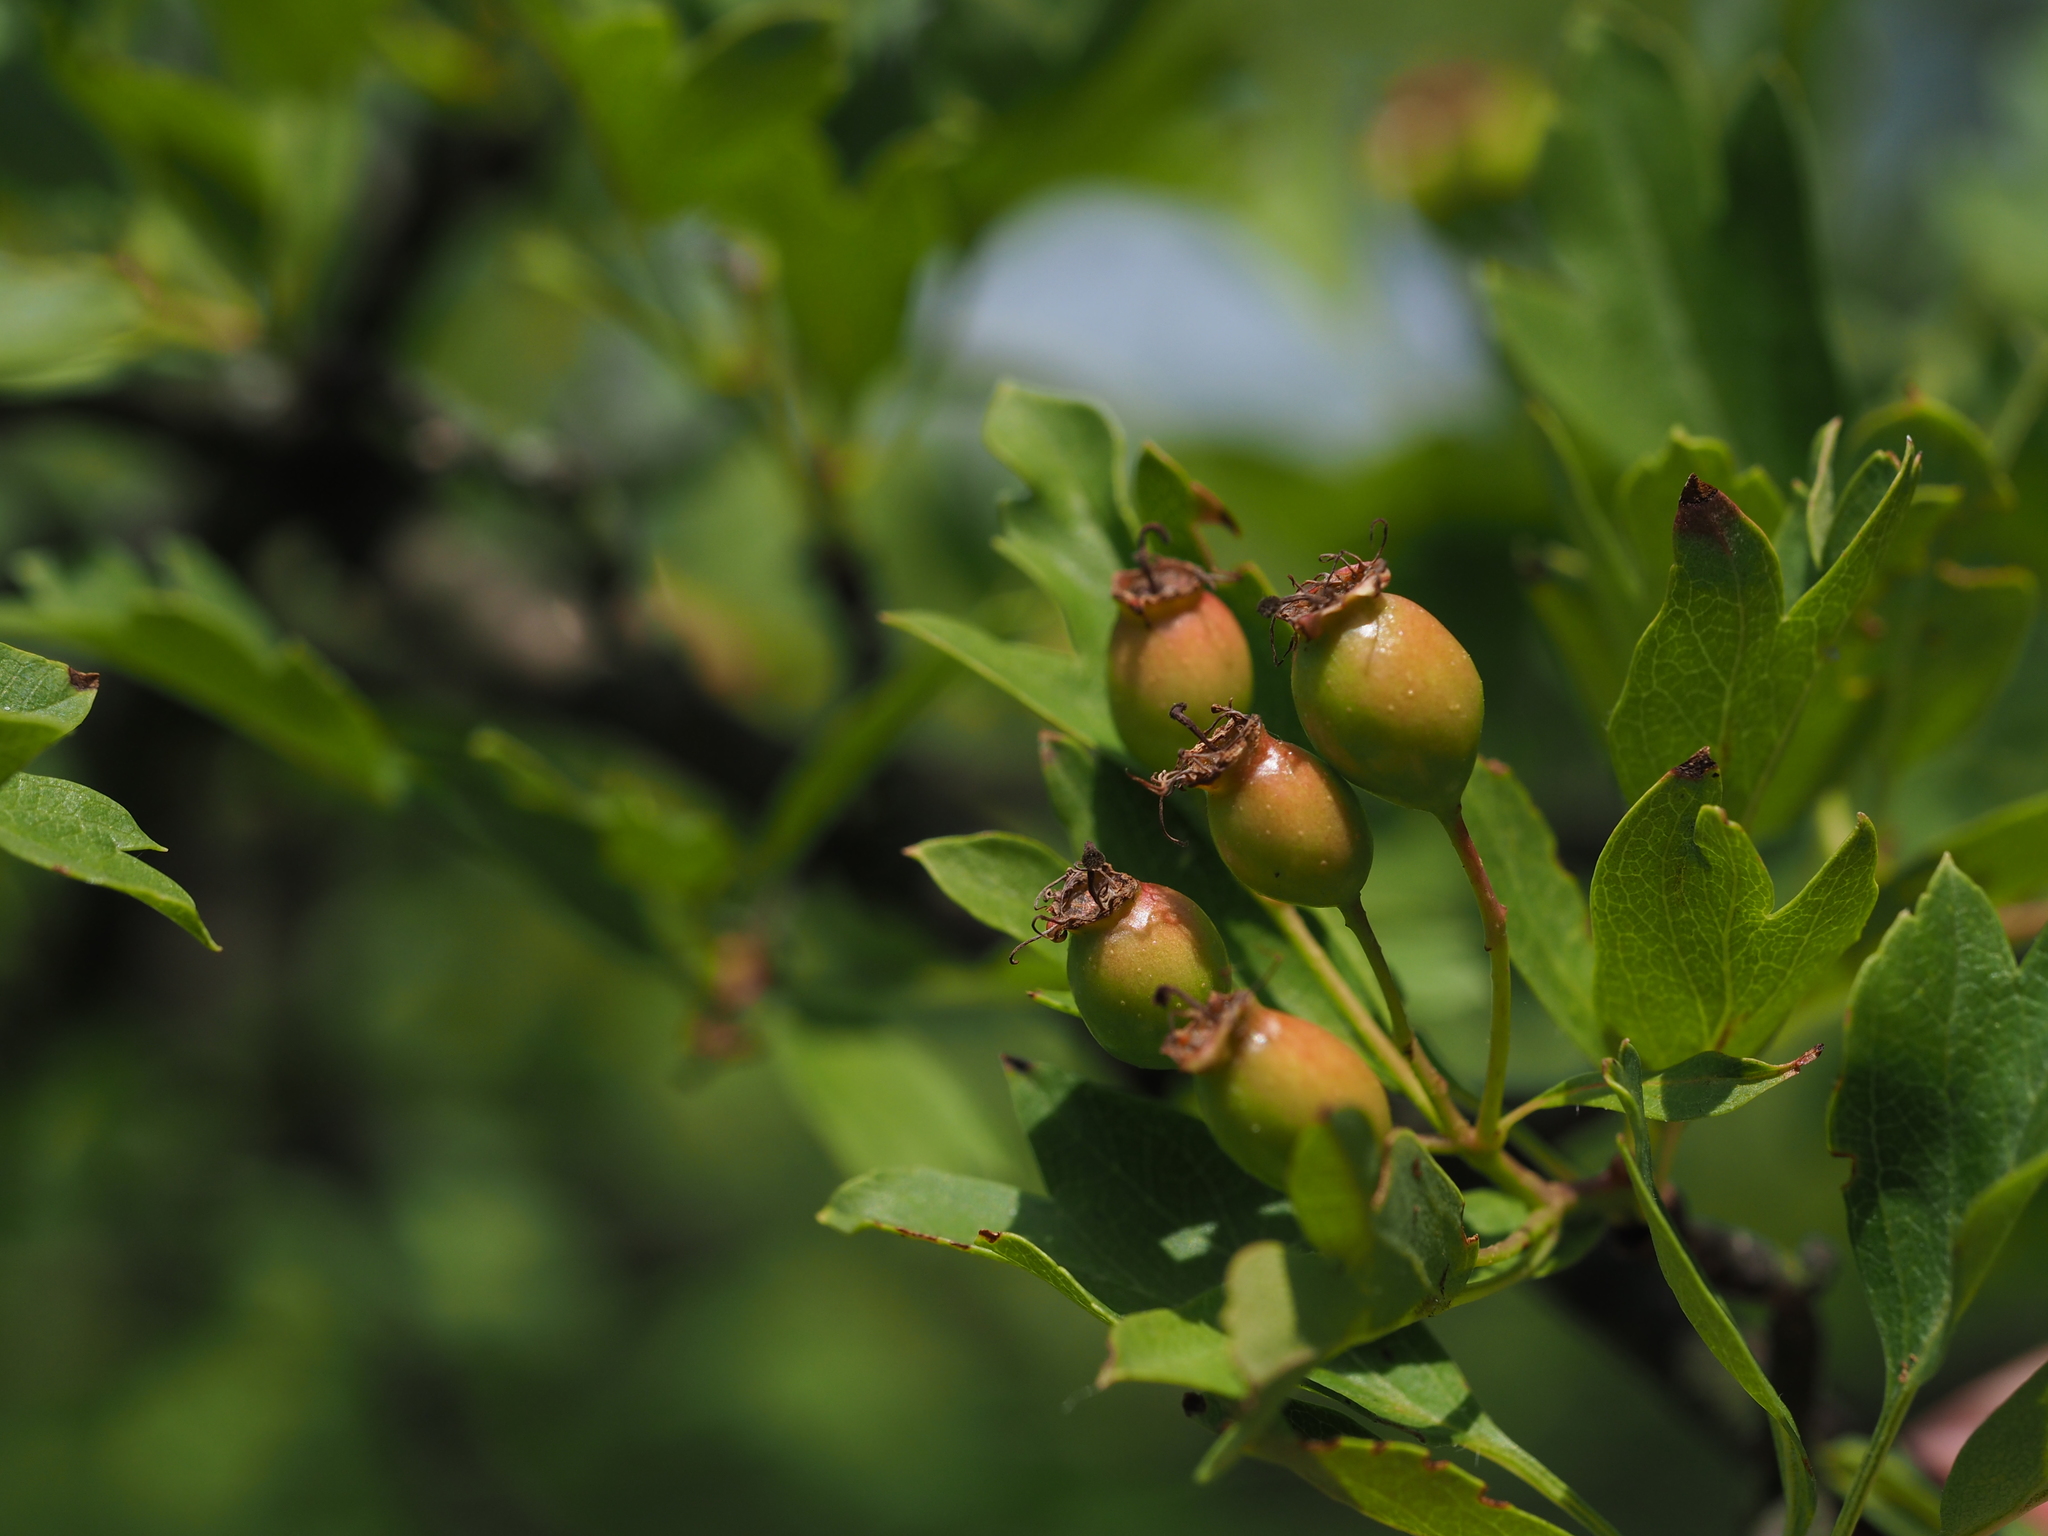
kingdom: Plantae
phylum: Tracheophyta
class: Magnoliopsida
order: Rosales
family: Rosaceae
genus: Crataegus
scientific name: Crataegus monogyna
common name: Hawthorn
